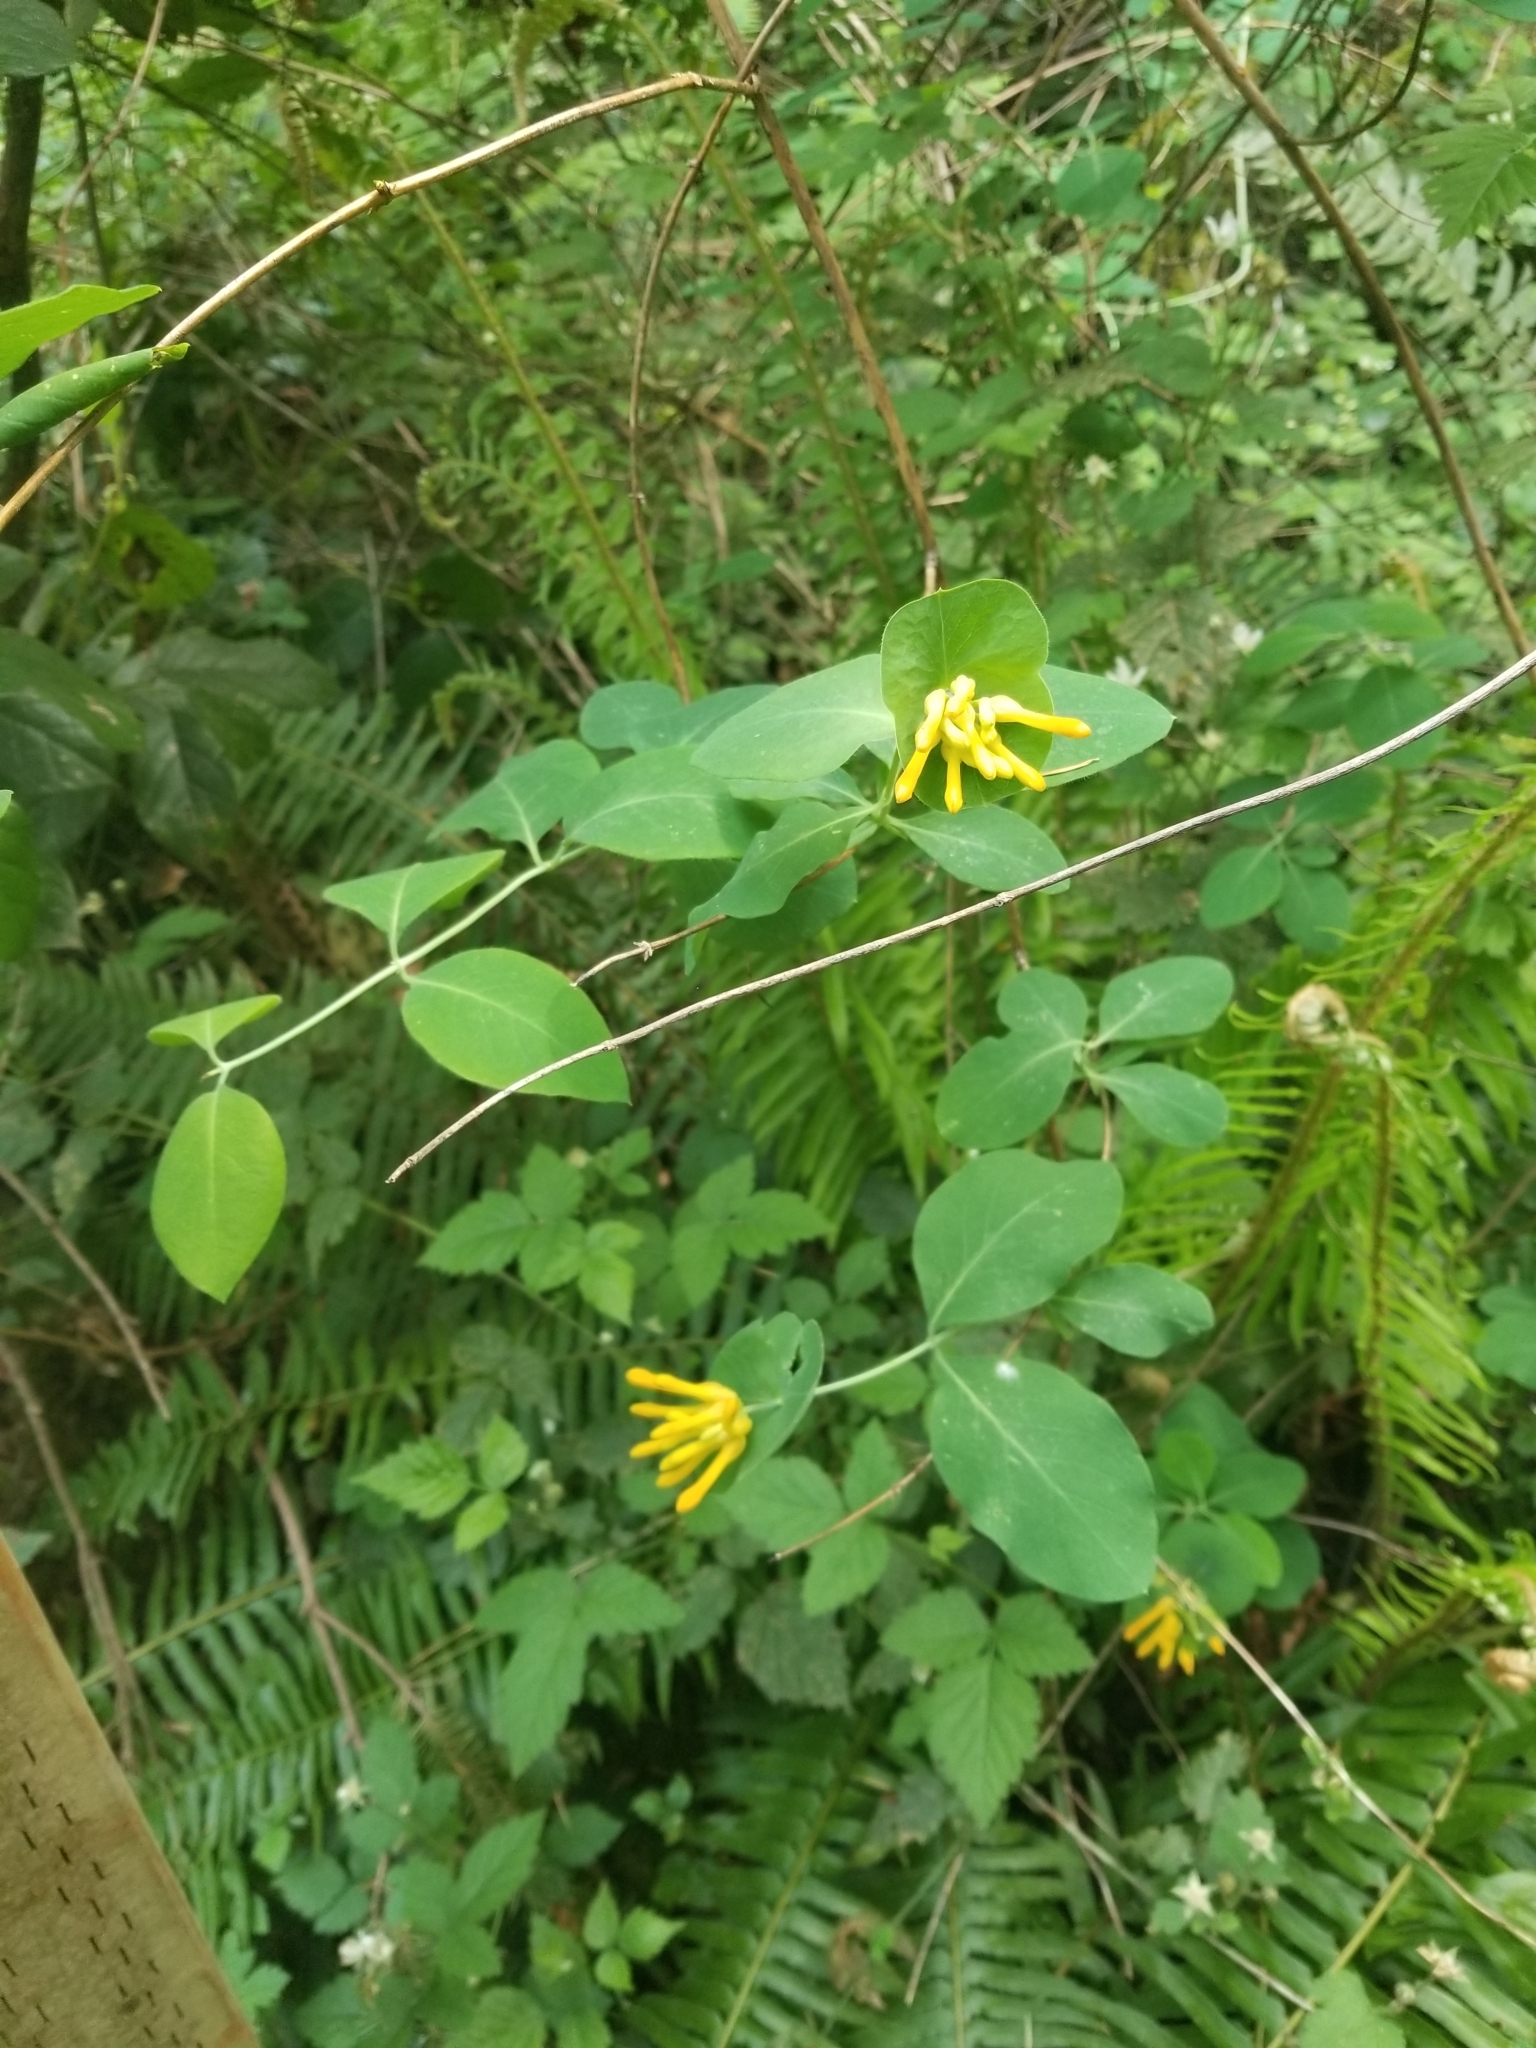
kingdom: Plantae
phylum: Tracheophyta
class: Magnoliopsida
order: Dipsacales
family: Caprifoliaceae
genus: Lonicera
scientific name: Lonicera ciliosa
